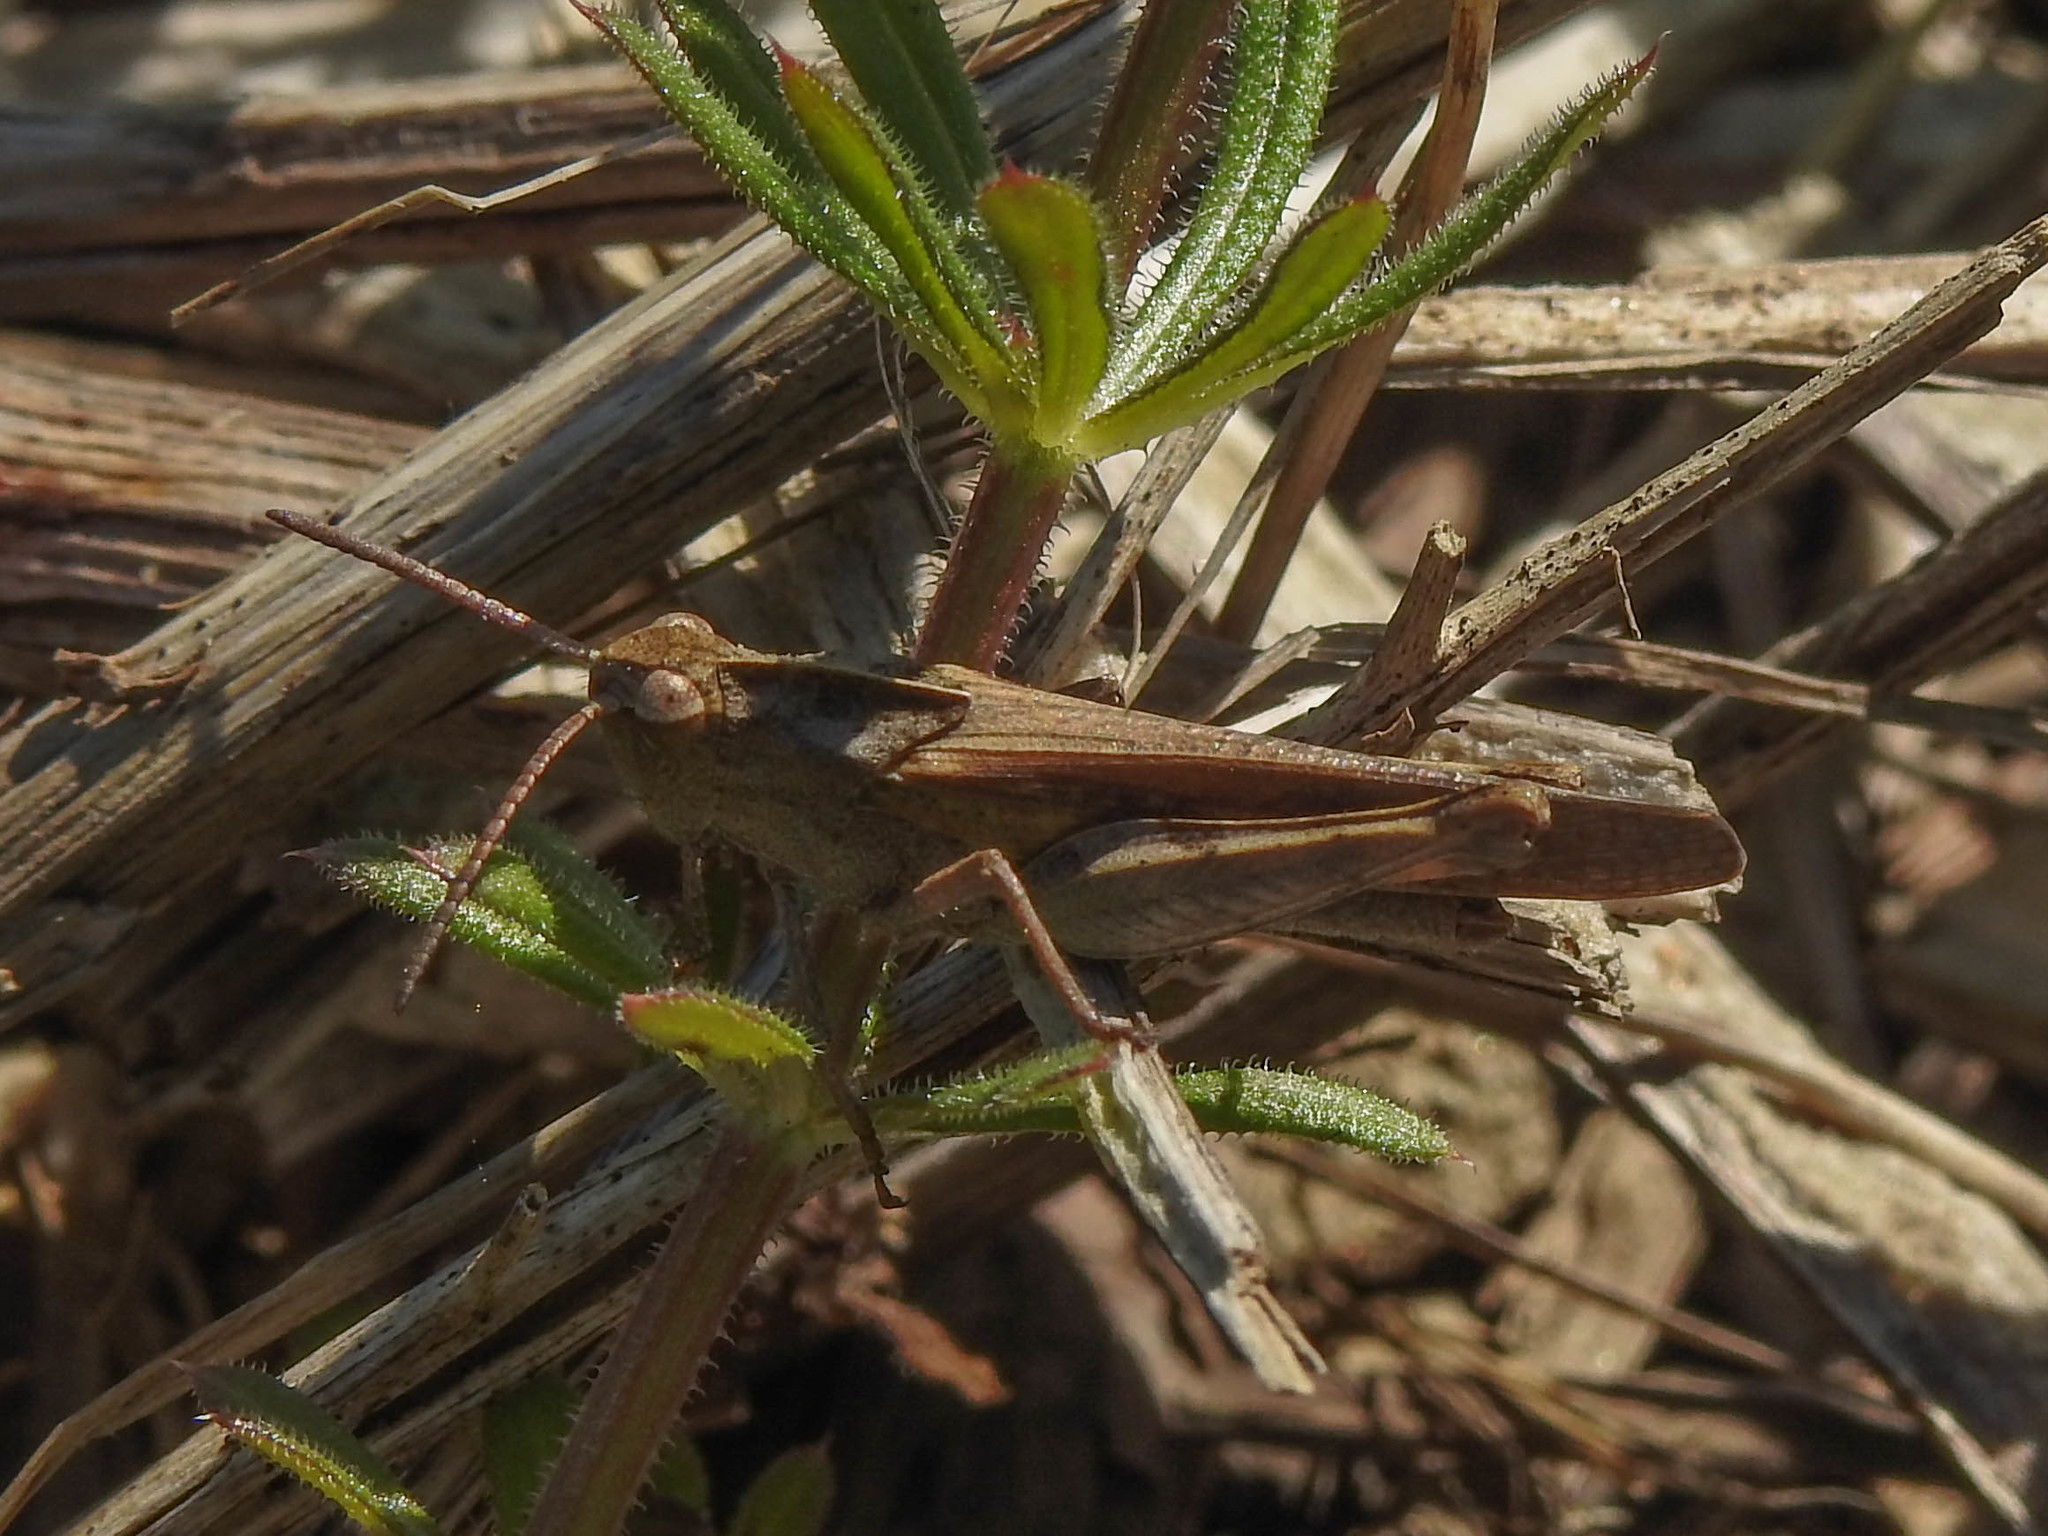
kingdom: Animalia
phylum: Arthropoda
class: Insecta
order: Orthoptera
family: Acrididae
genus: Chortophaga
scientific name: Chortophaga viridifasciata
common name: Green-striped grasshopper
